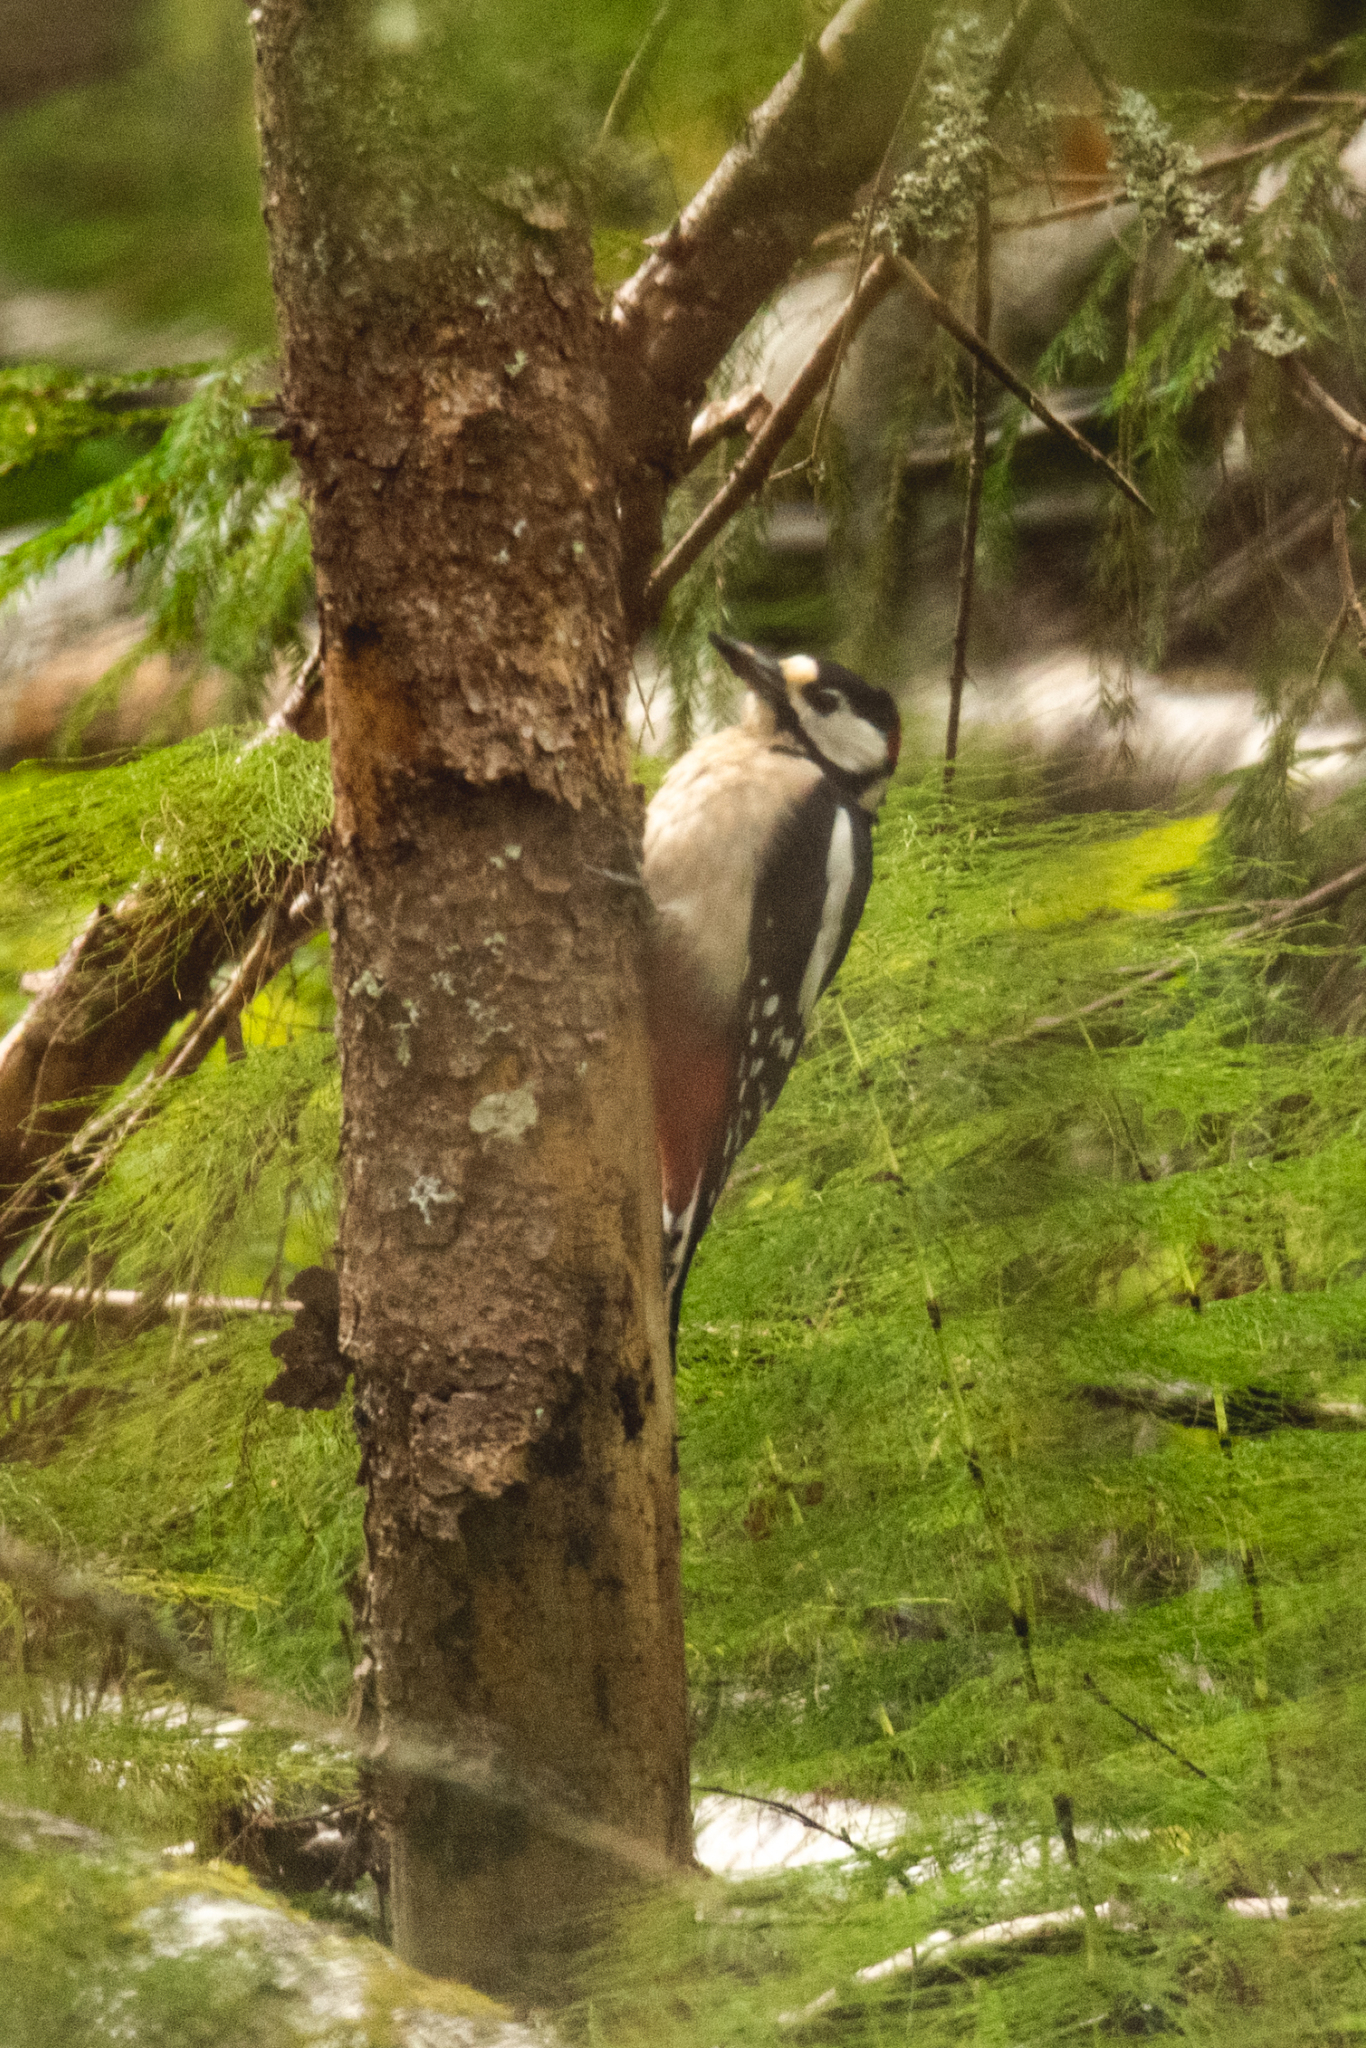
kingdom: Animalia
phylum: Chordata
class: Aves
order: Piciformes
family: Picidae
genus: Dendrocopos
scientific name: Dendrocopos major
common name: Great spotted woodpecker
